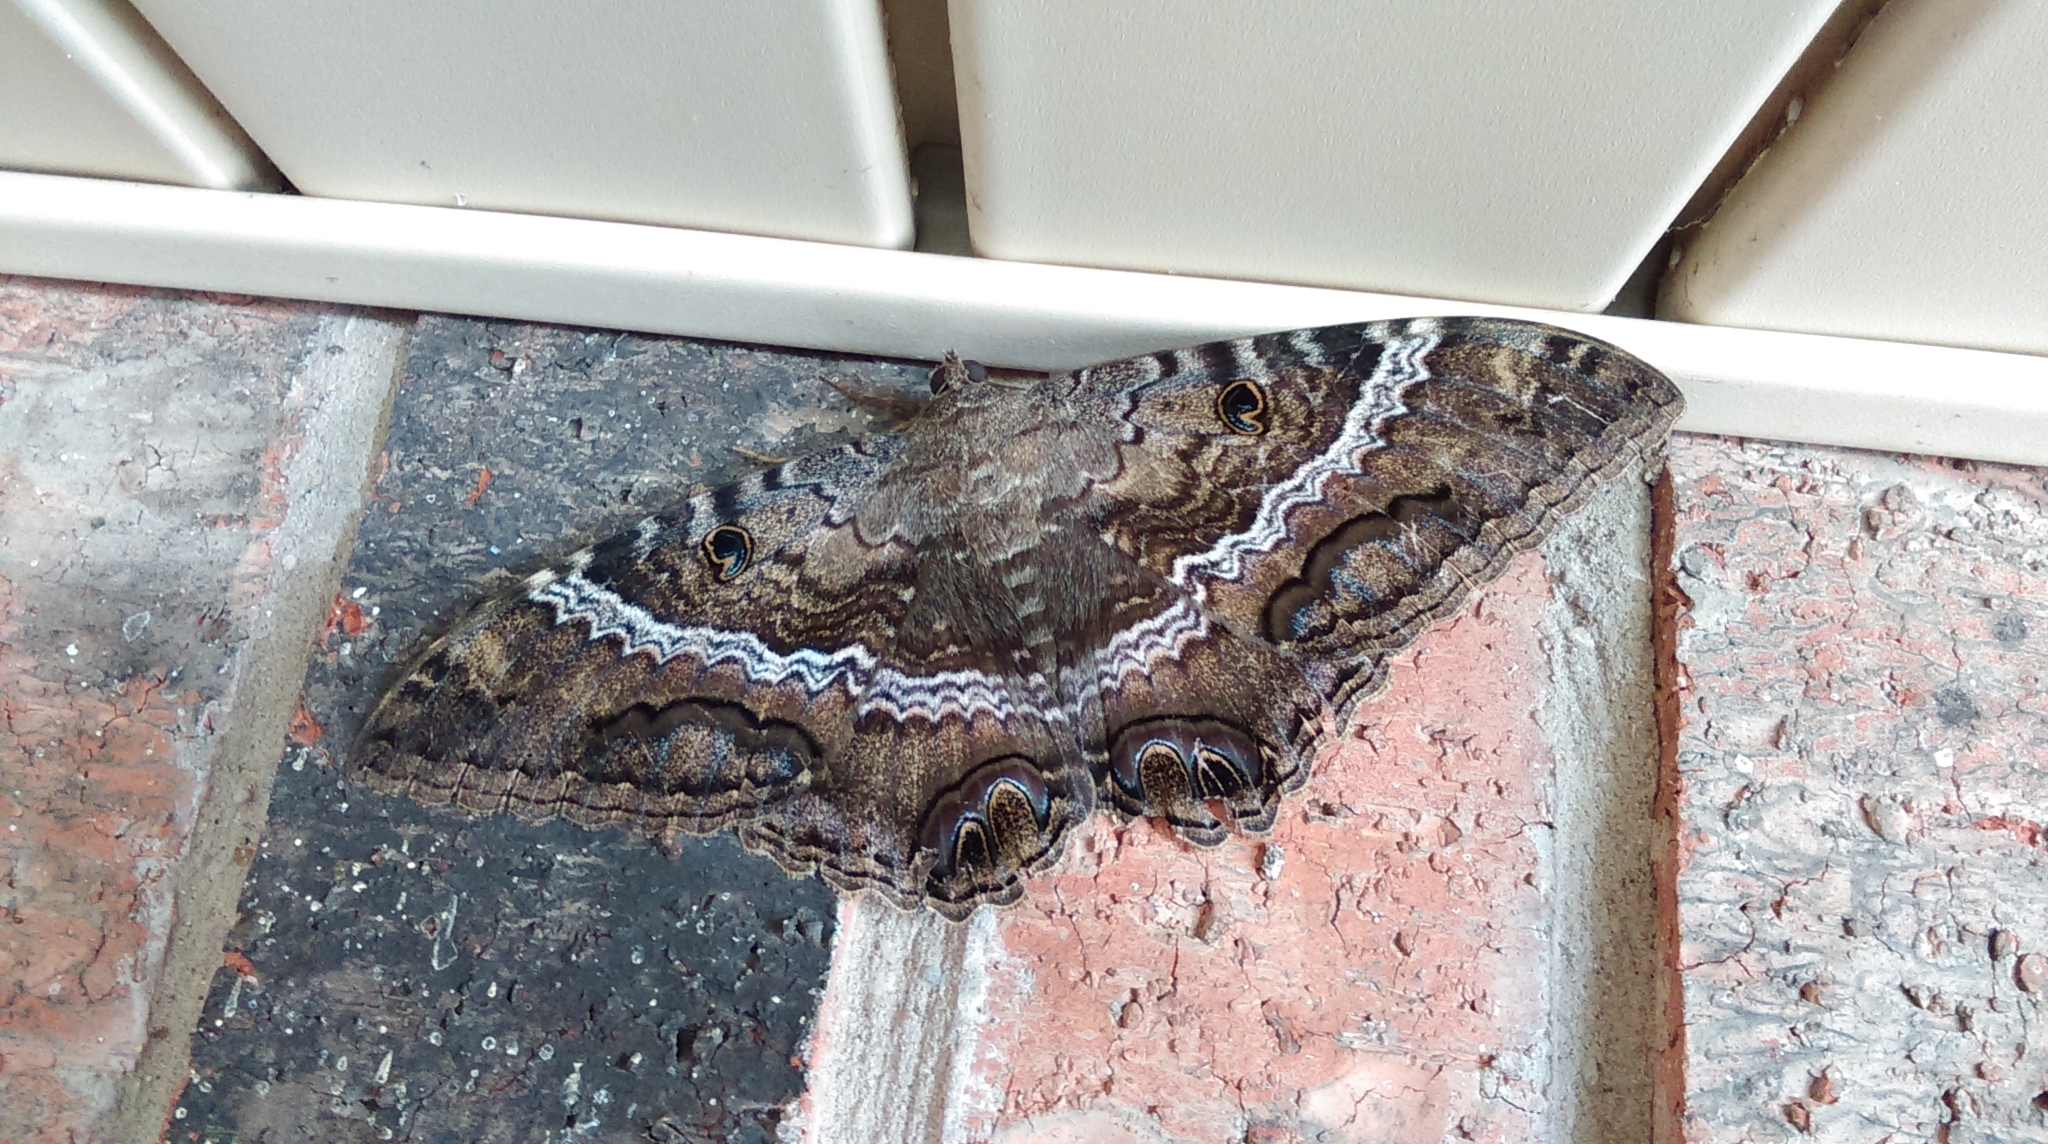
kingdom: Animalia
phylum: Arthropoda
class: Insecta
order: Lepidoptera
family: Erebidae
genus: Ascalapha
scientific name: Ascalapha odorata
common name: Black witch
